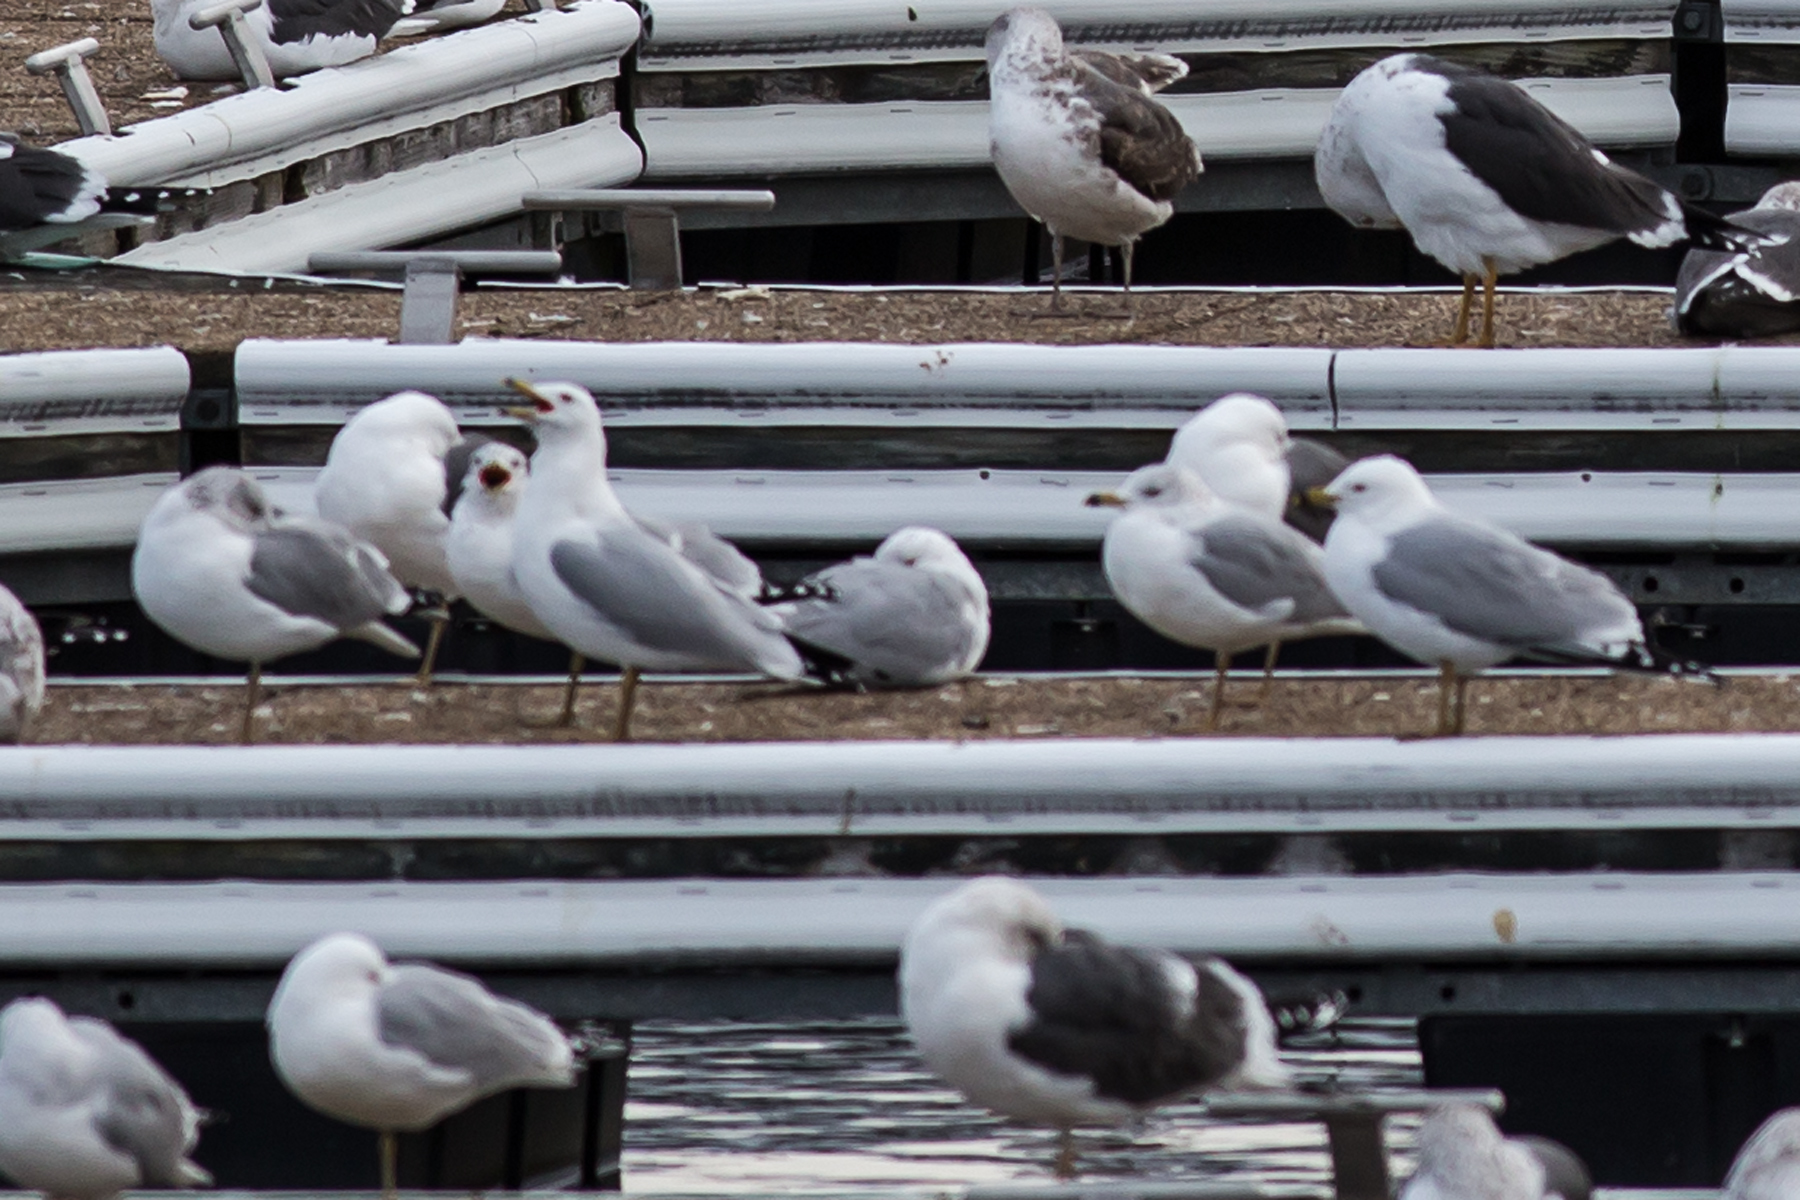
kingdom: Animalia
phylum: Chordata
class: Aves
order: Charadriiformes
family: Laridae
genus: Larus
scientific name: Larus delawarensis
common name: Ring-billed gull
